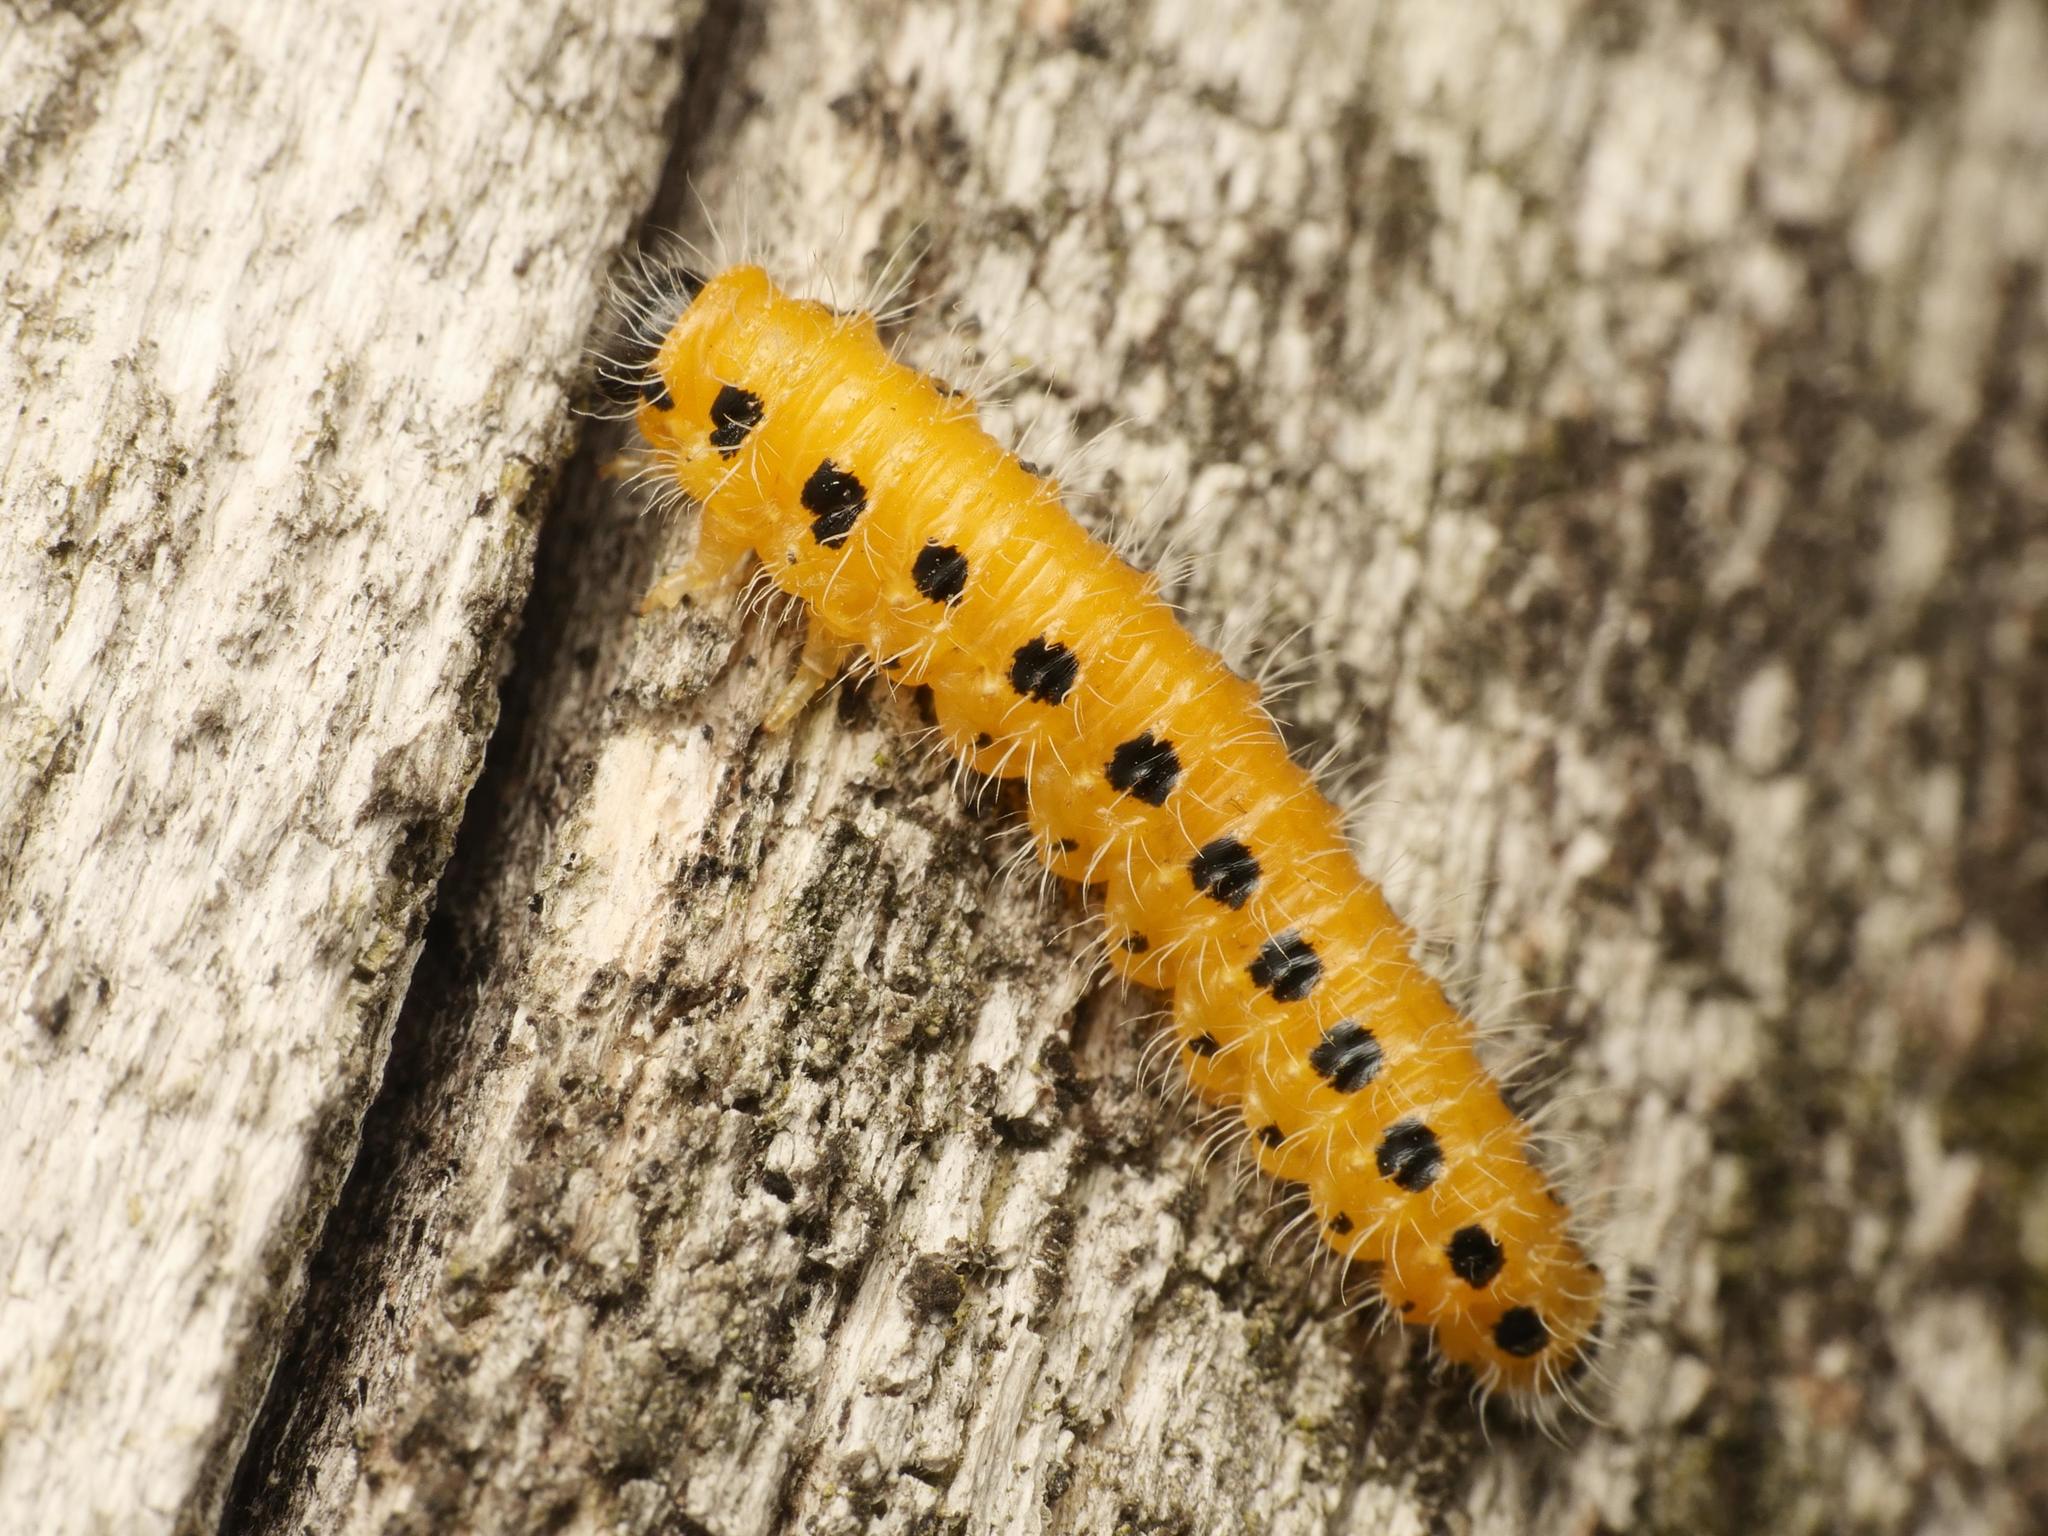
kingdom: Animalia
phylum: Arthropoda
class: Insecta
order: Hymenoptera
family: Tenthredinidae
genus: Cladius
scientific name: Cladius grandis
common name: Common sawfly
